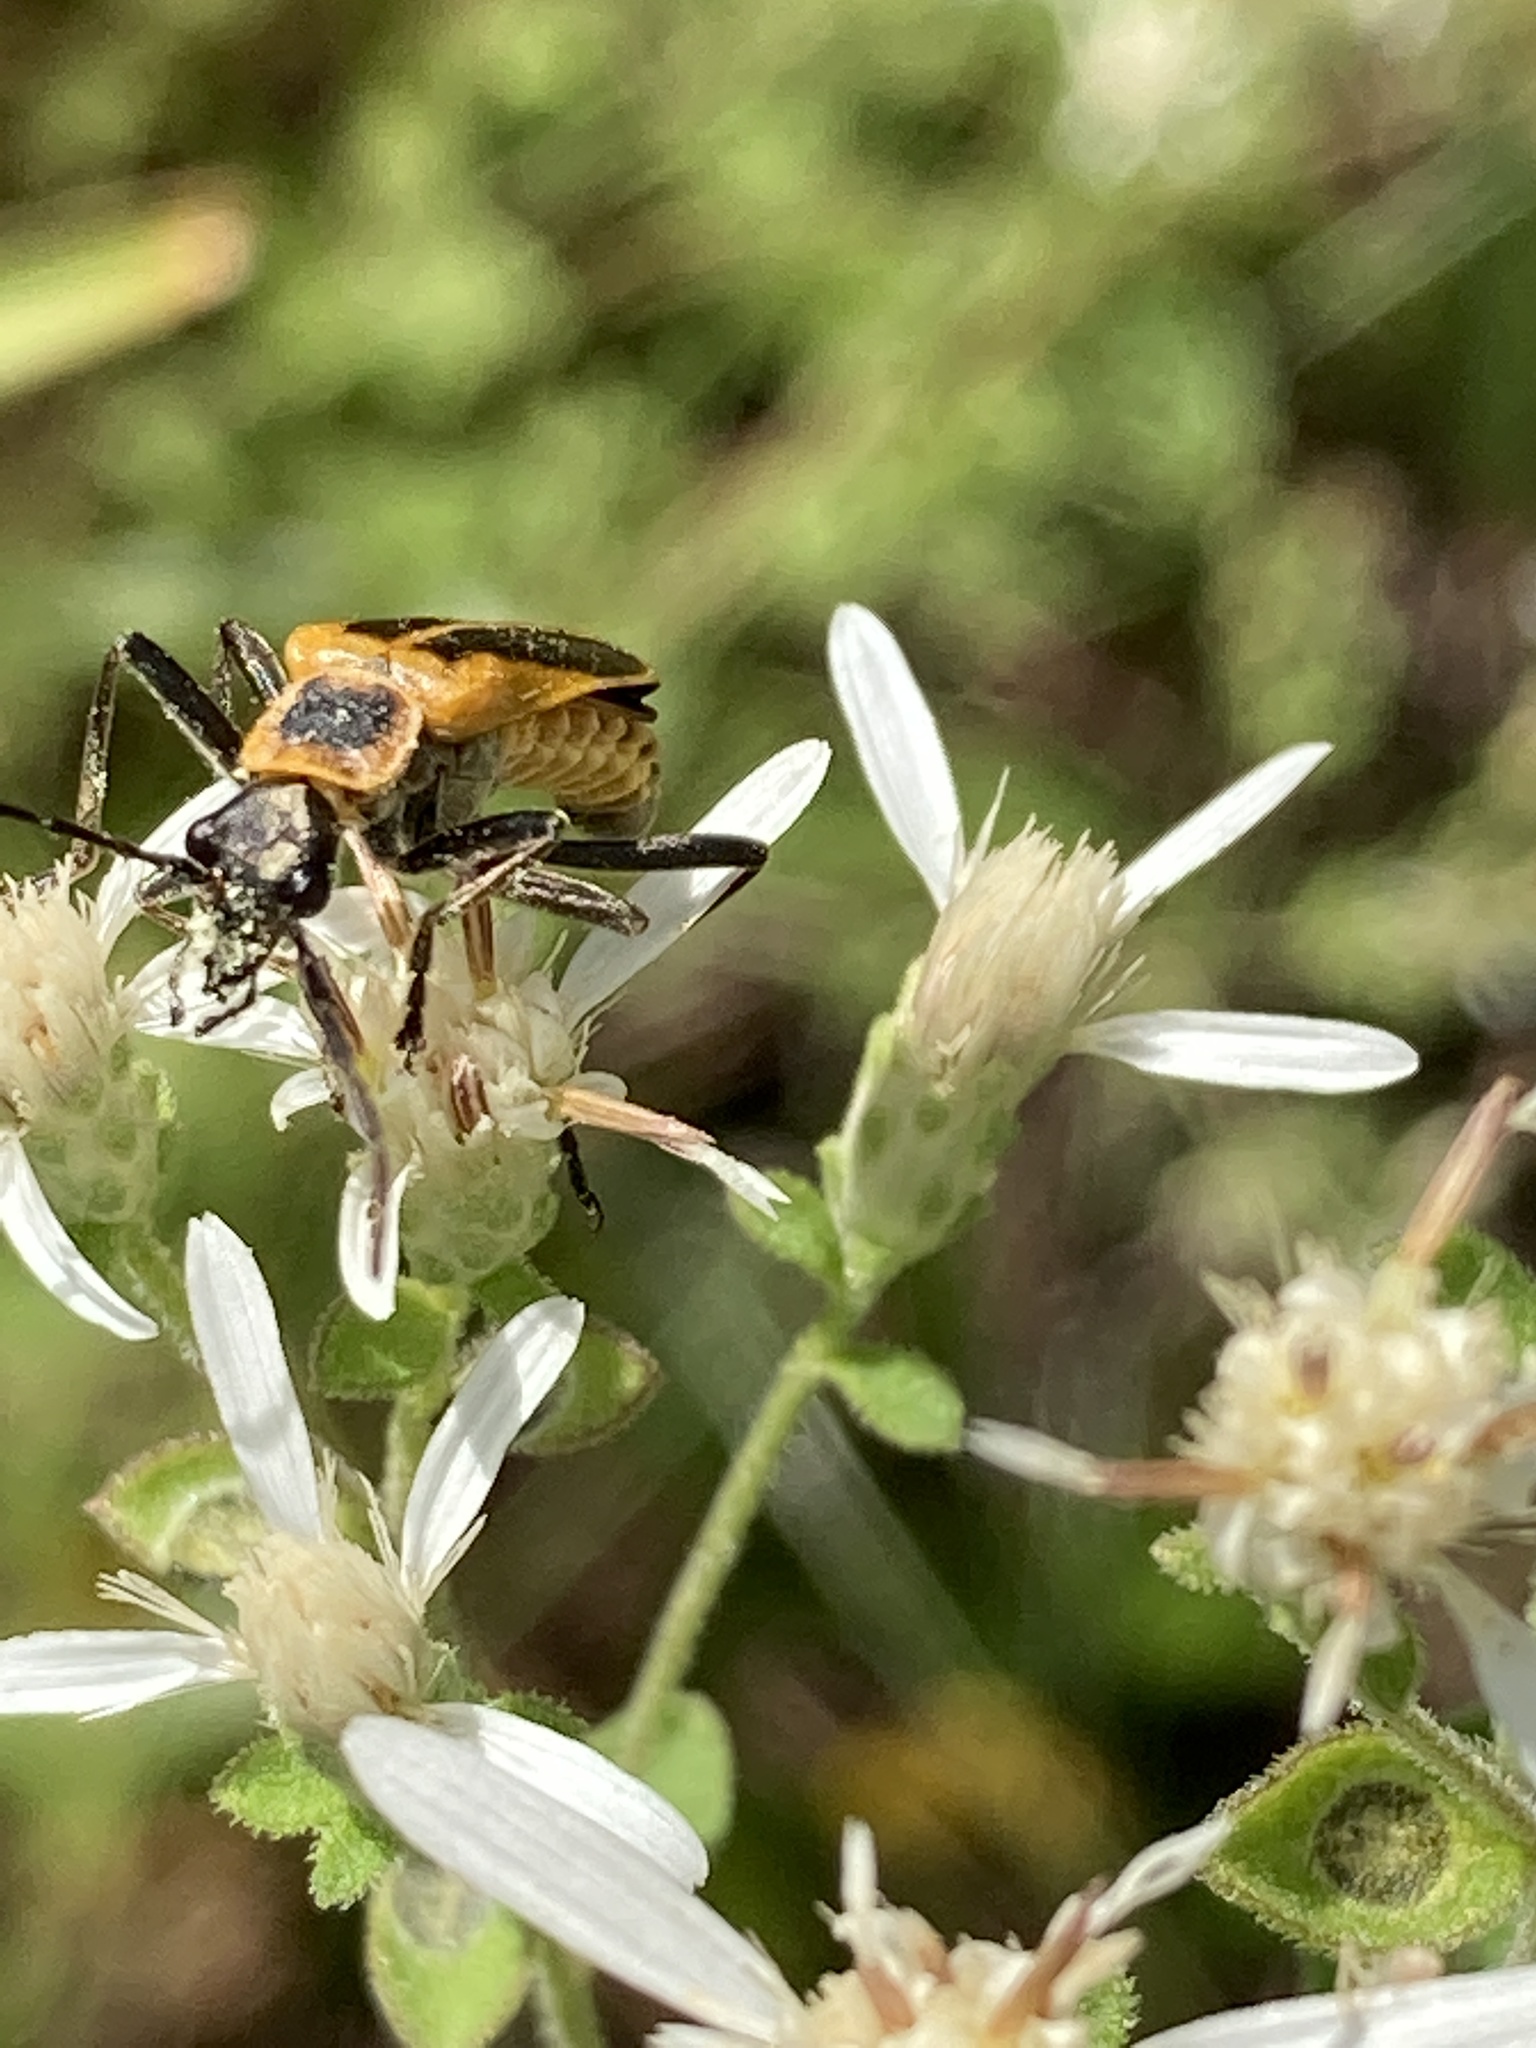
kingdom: Animalia
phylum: Arthropoda
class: Insecta
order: Coleoptera
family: Cantharidae
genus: Chauliognathus
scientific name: Chauliognathus pensylvanicus
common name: Goldenrod soldier beetle
